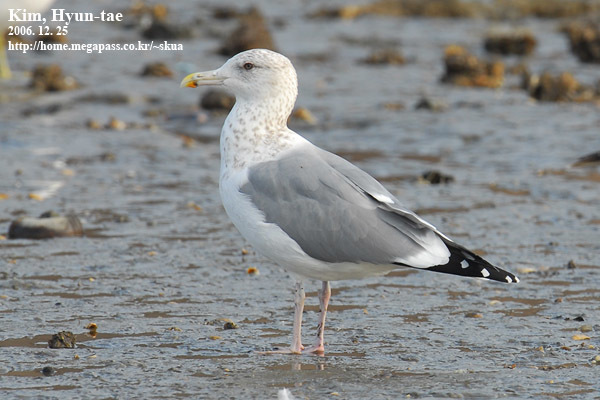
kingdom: Animalia
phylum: Chordata
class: Aves
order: Charadriiformes
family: Laridae
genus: Larus
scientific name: Larus fuscus
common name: Lesser black-backed gull
